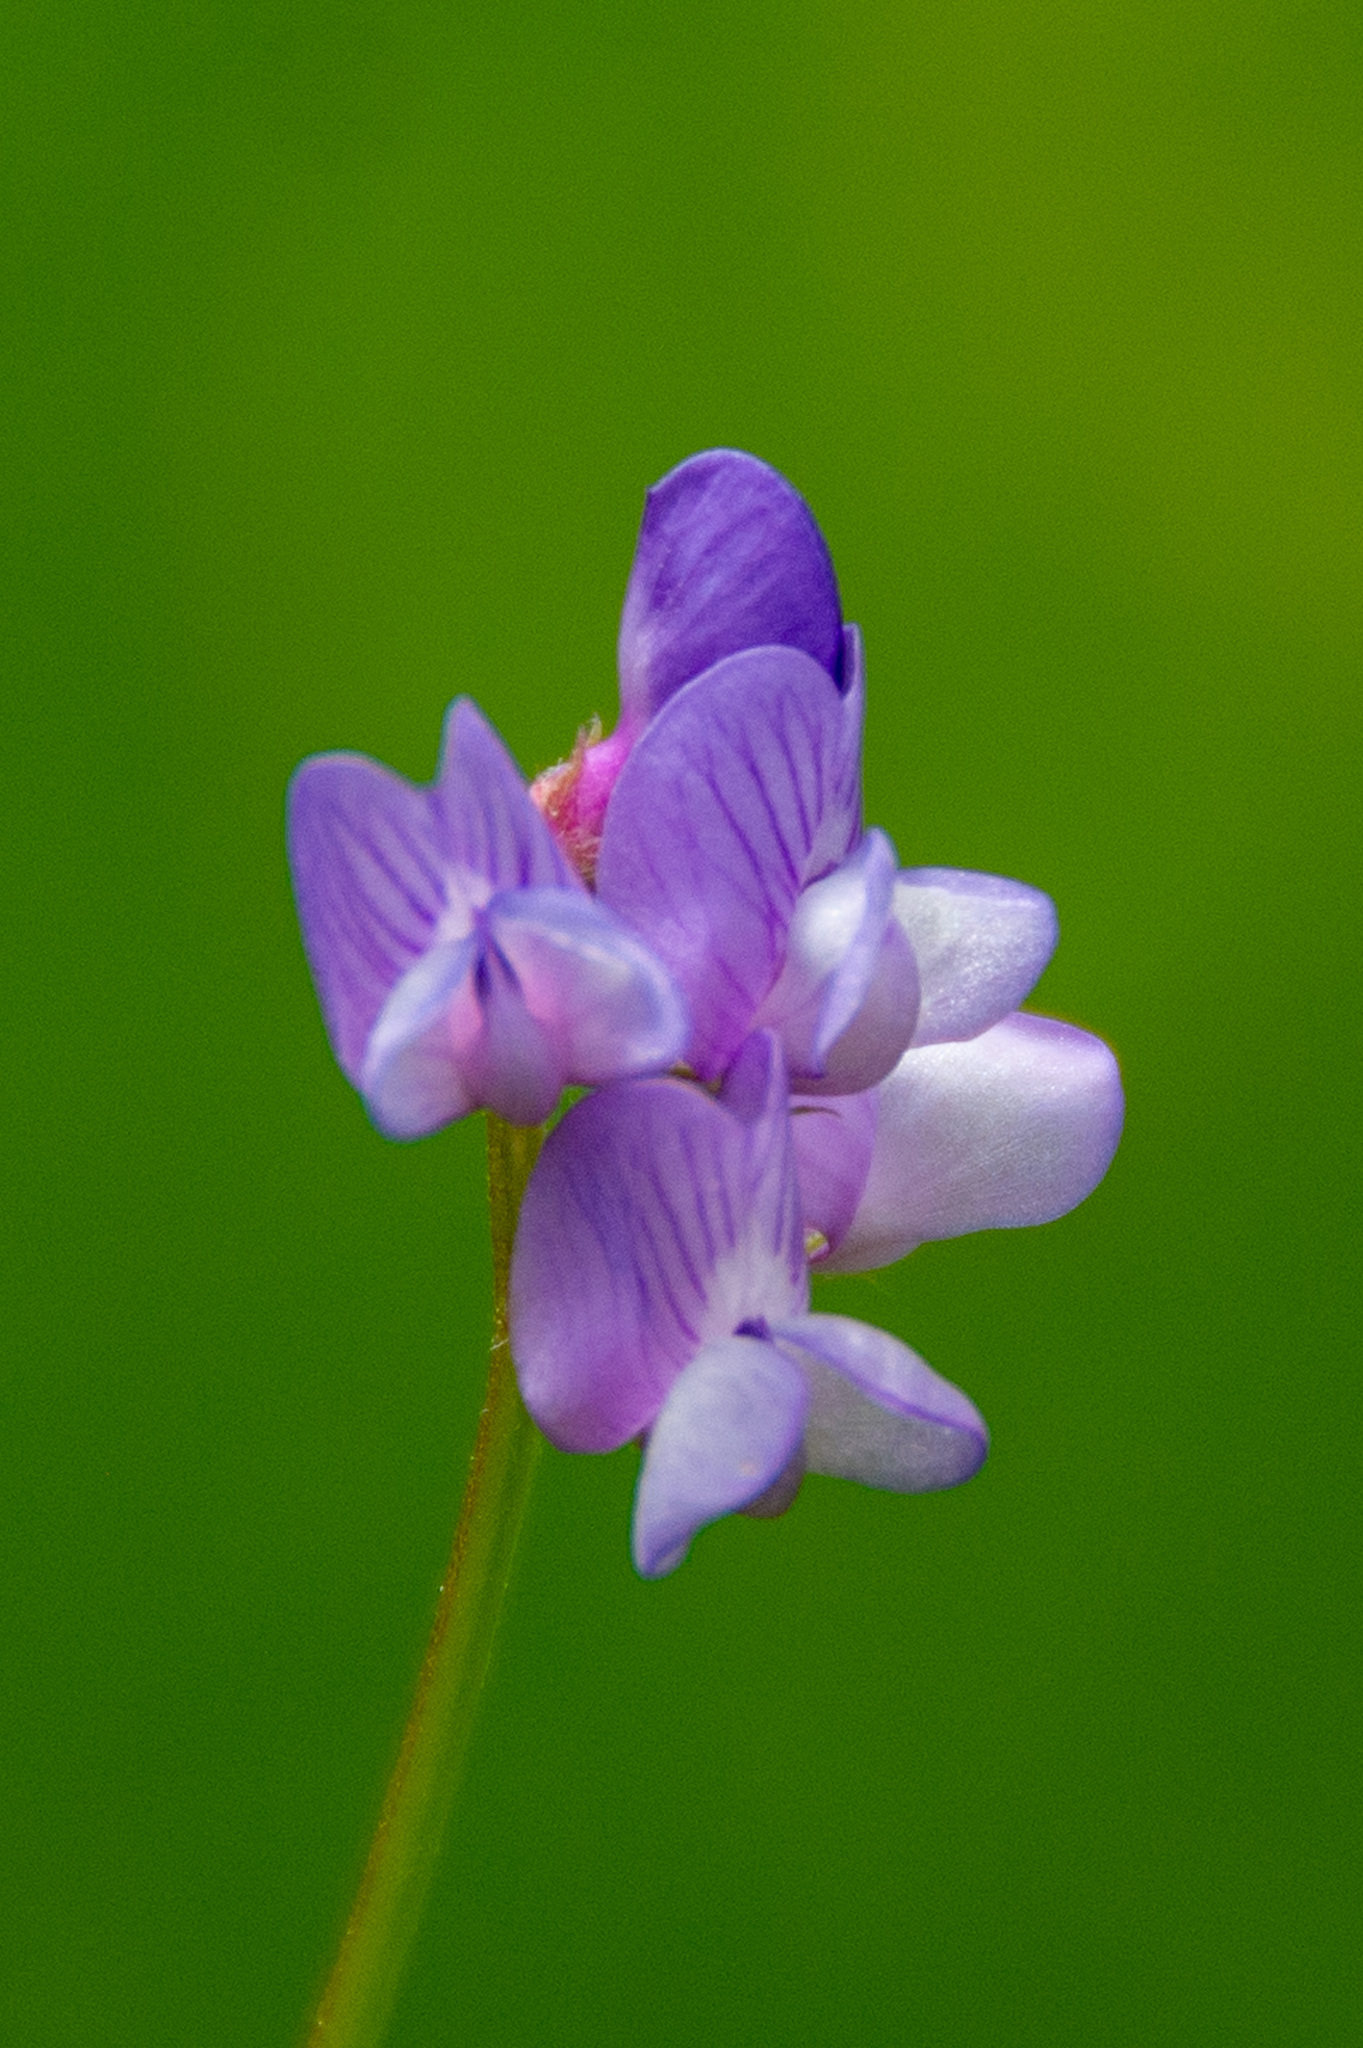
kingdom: Plantae
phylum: Tracheophyta
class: Magnoliopsida
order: Fabales
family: Fabaceae
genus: Vicia
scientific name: Vicia ludoviciana
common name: Louisiana vetch
